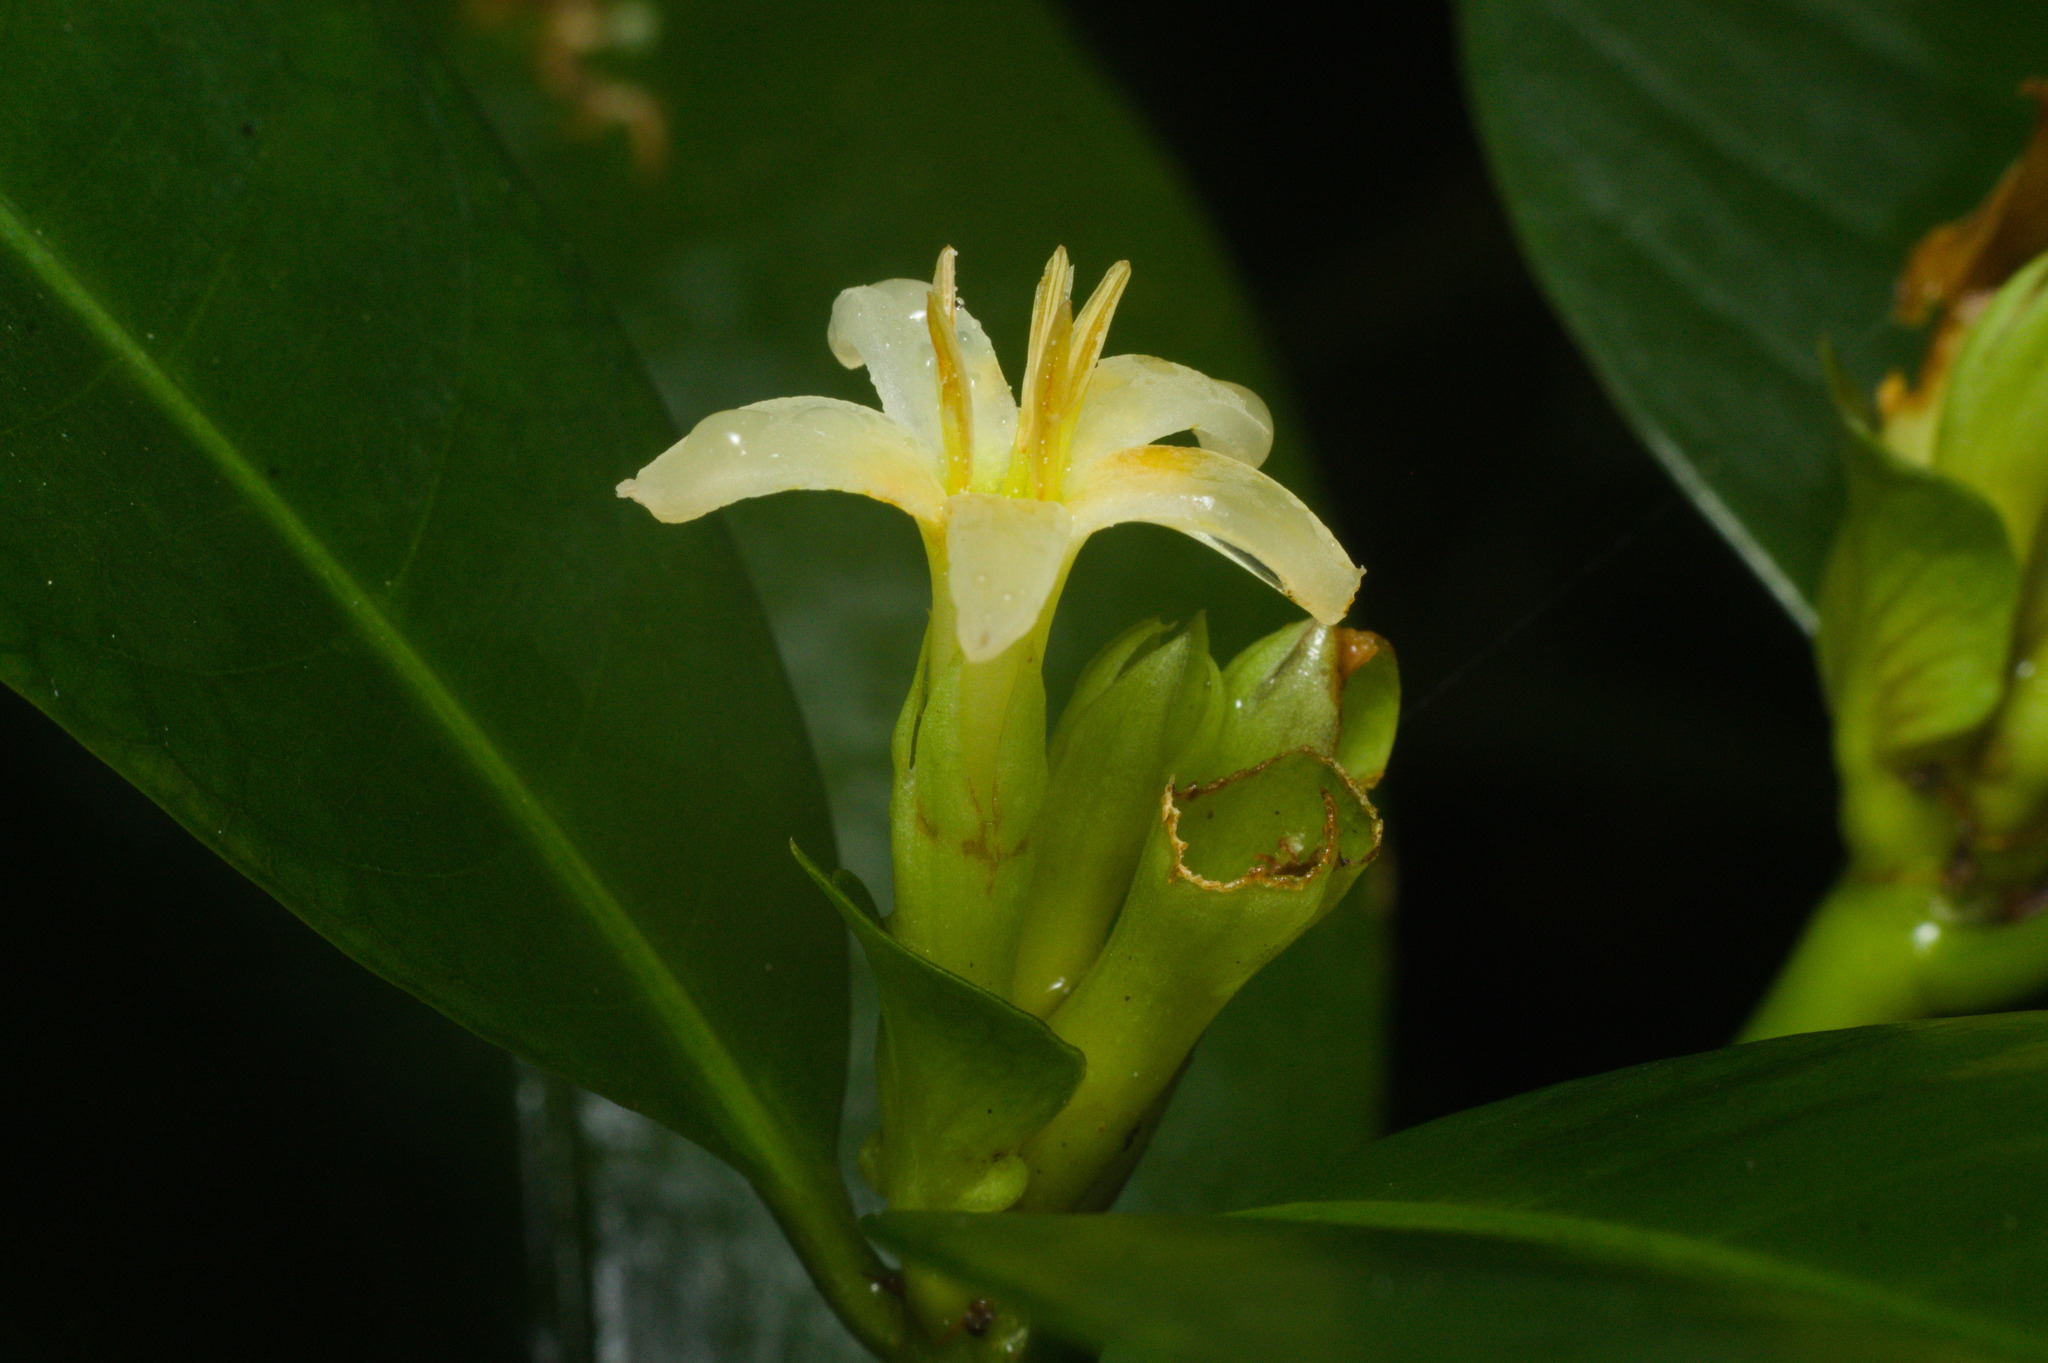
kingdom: Plantae
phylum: Tracheophyta
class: Magnoliopsida
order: Gentianales
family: Rubiaceae
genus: Psychotria
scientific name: Psychotria laciniata
